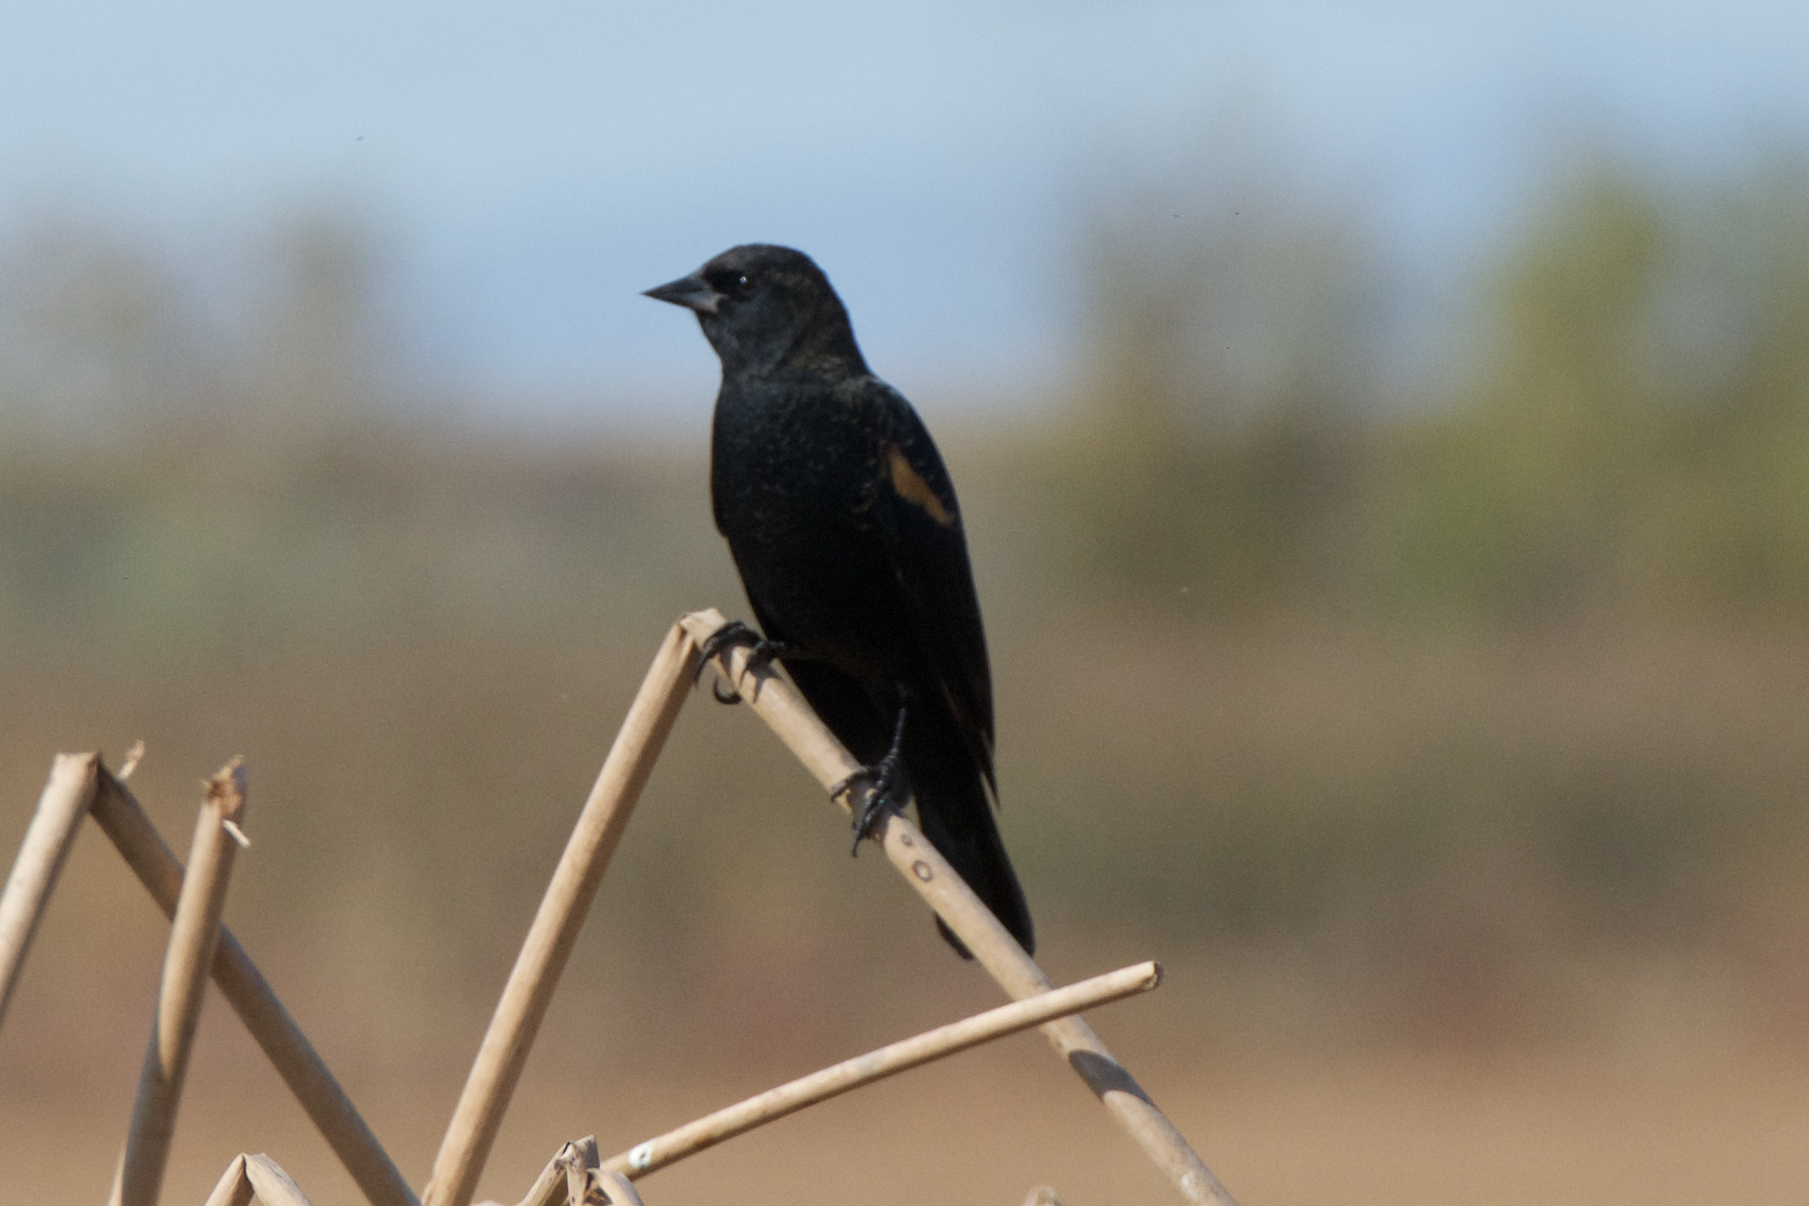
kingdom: Animalia
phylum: Chordata
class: Aves
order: Passeriformes
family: Icteridae
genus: Agelaius
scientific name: Agelaius phoeniceus
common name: Red-winged blackbird
